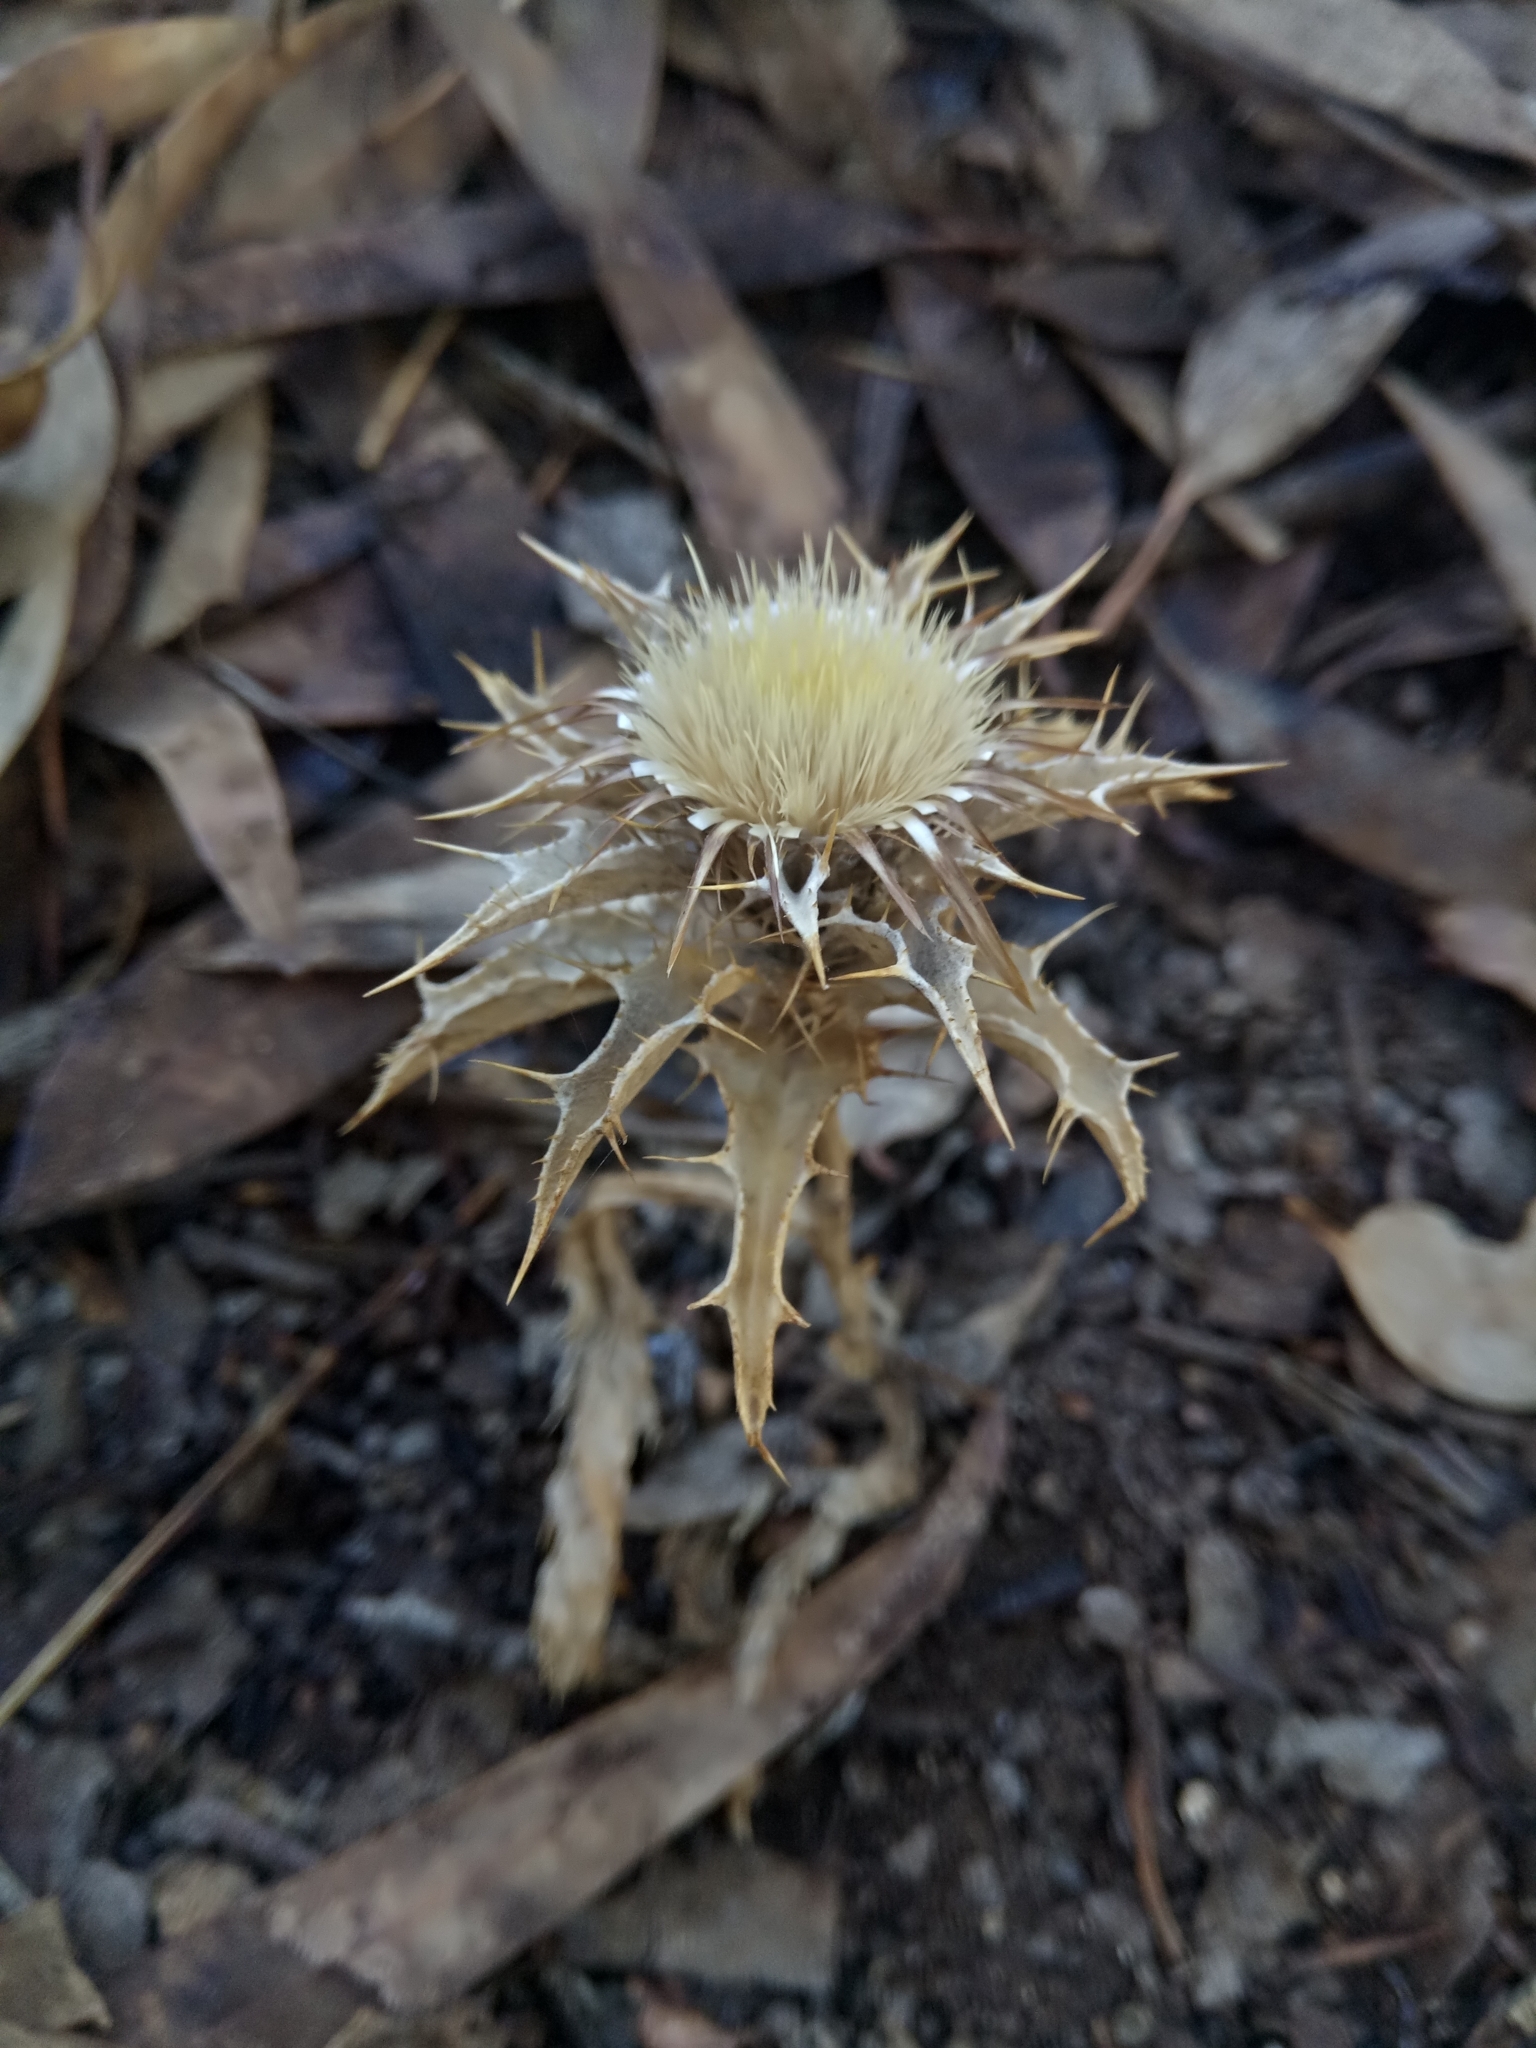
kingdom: Plantae
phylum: Tracheophyta
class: Magnoliopsida
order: Asterales
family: Asteraceae
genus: Carlina
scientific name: Carlina lanata
